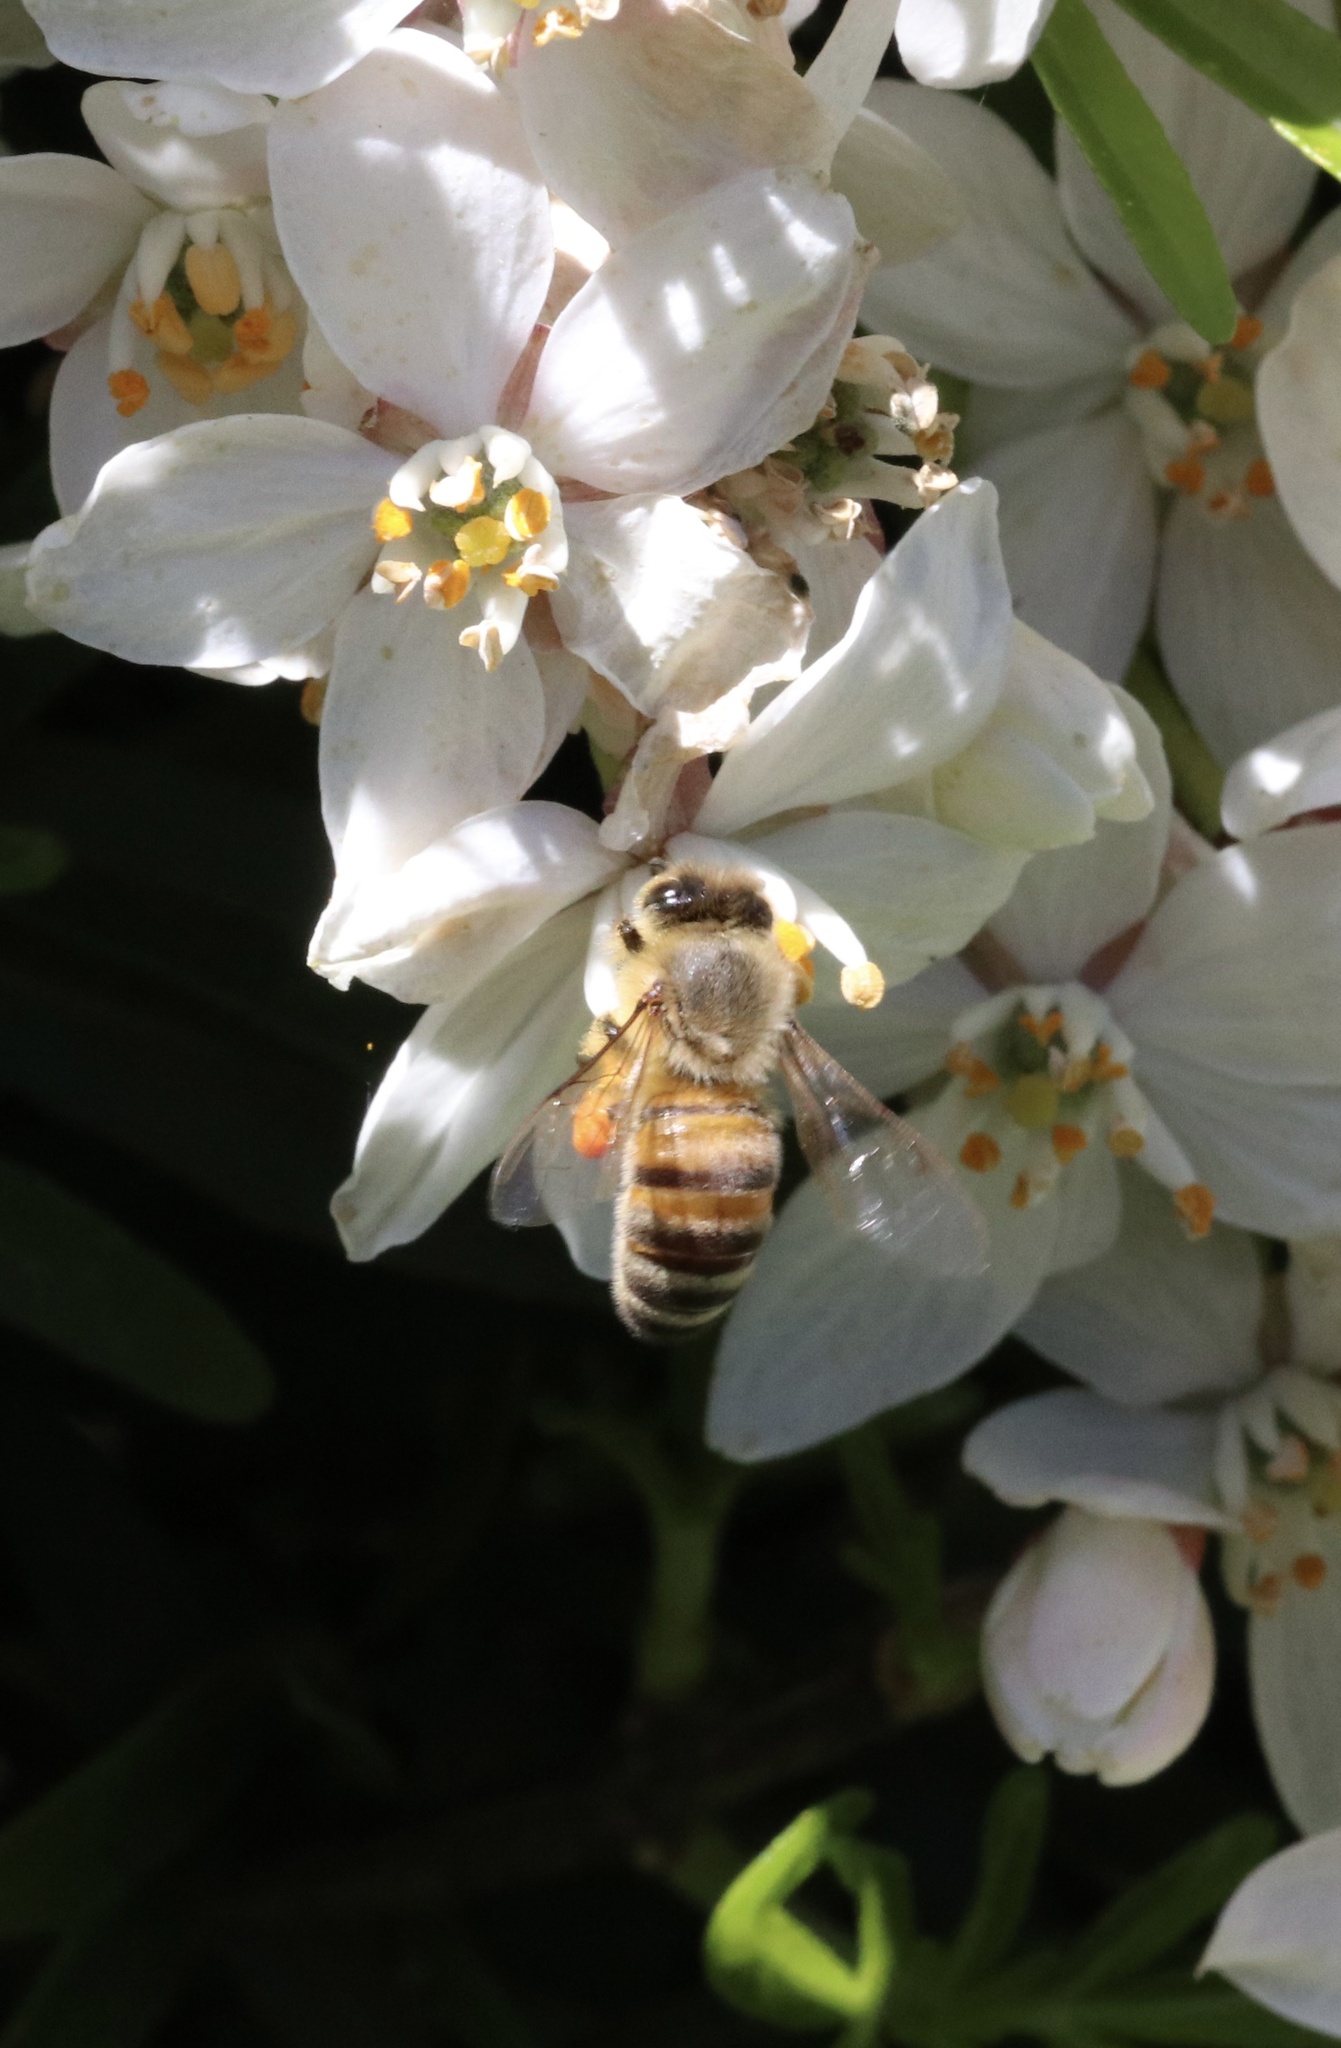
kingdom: Animalia
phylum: Arthropoda
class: Insecta
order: Hymenoptera
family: Apidae
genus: Apis
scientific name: Apis mellifera
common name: Honey bee
